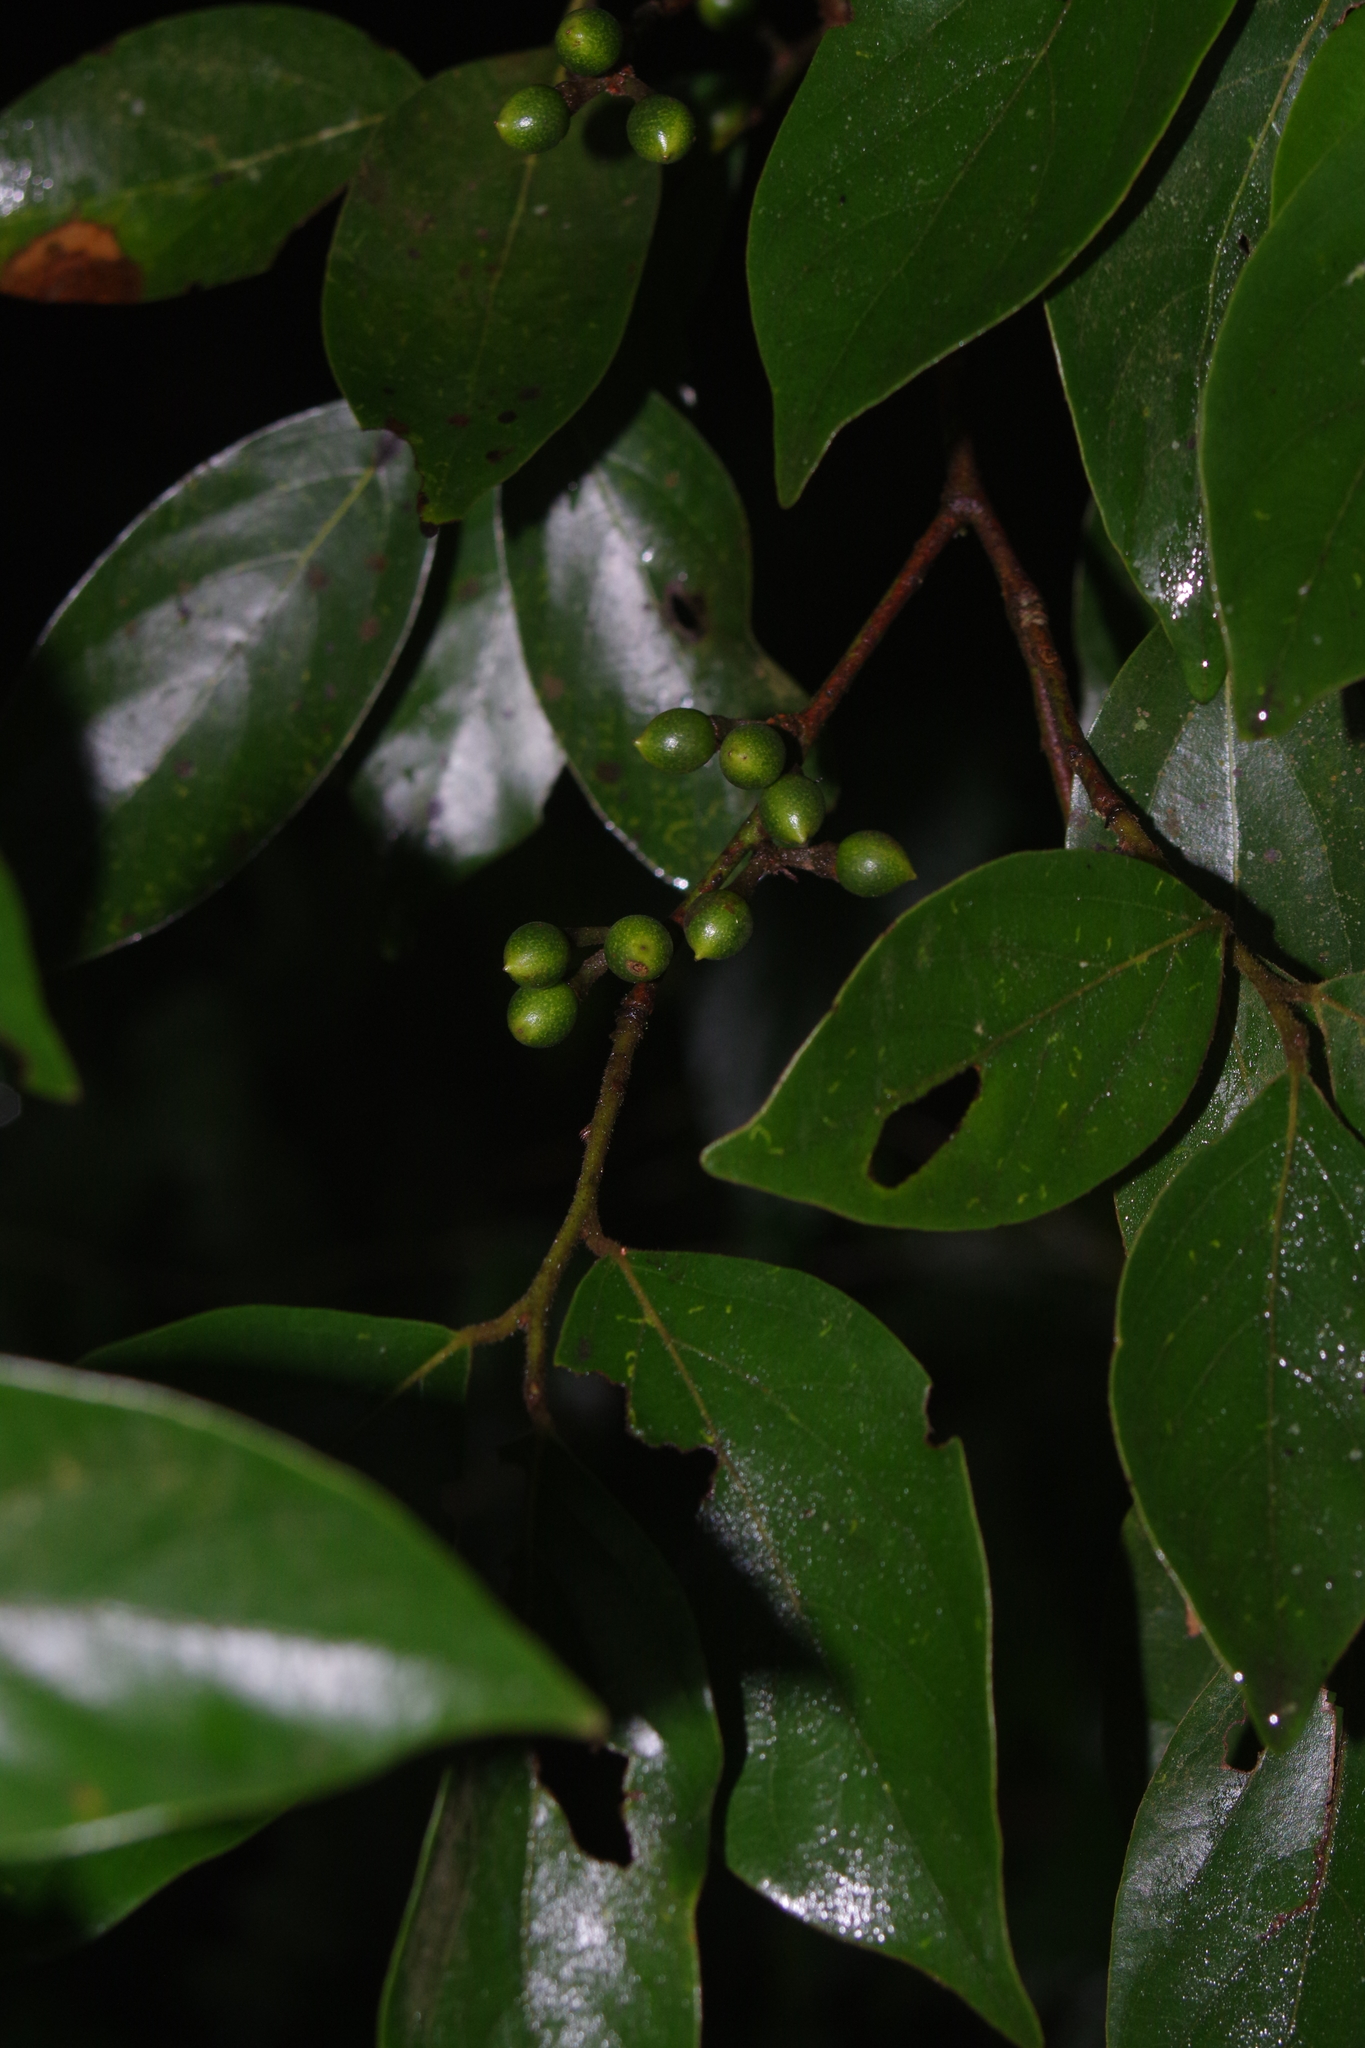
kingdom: Plantae
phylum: Tracheophyta
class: Magnoliopsida
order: Laurales
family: Lauraceae
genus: Lindera
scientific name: Lindera communis
